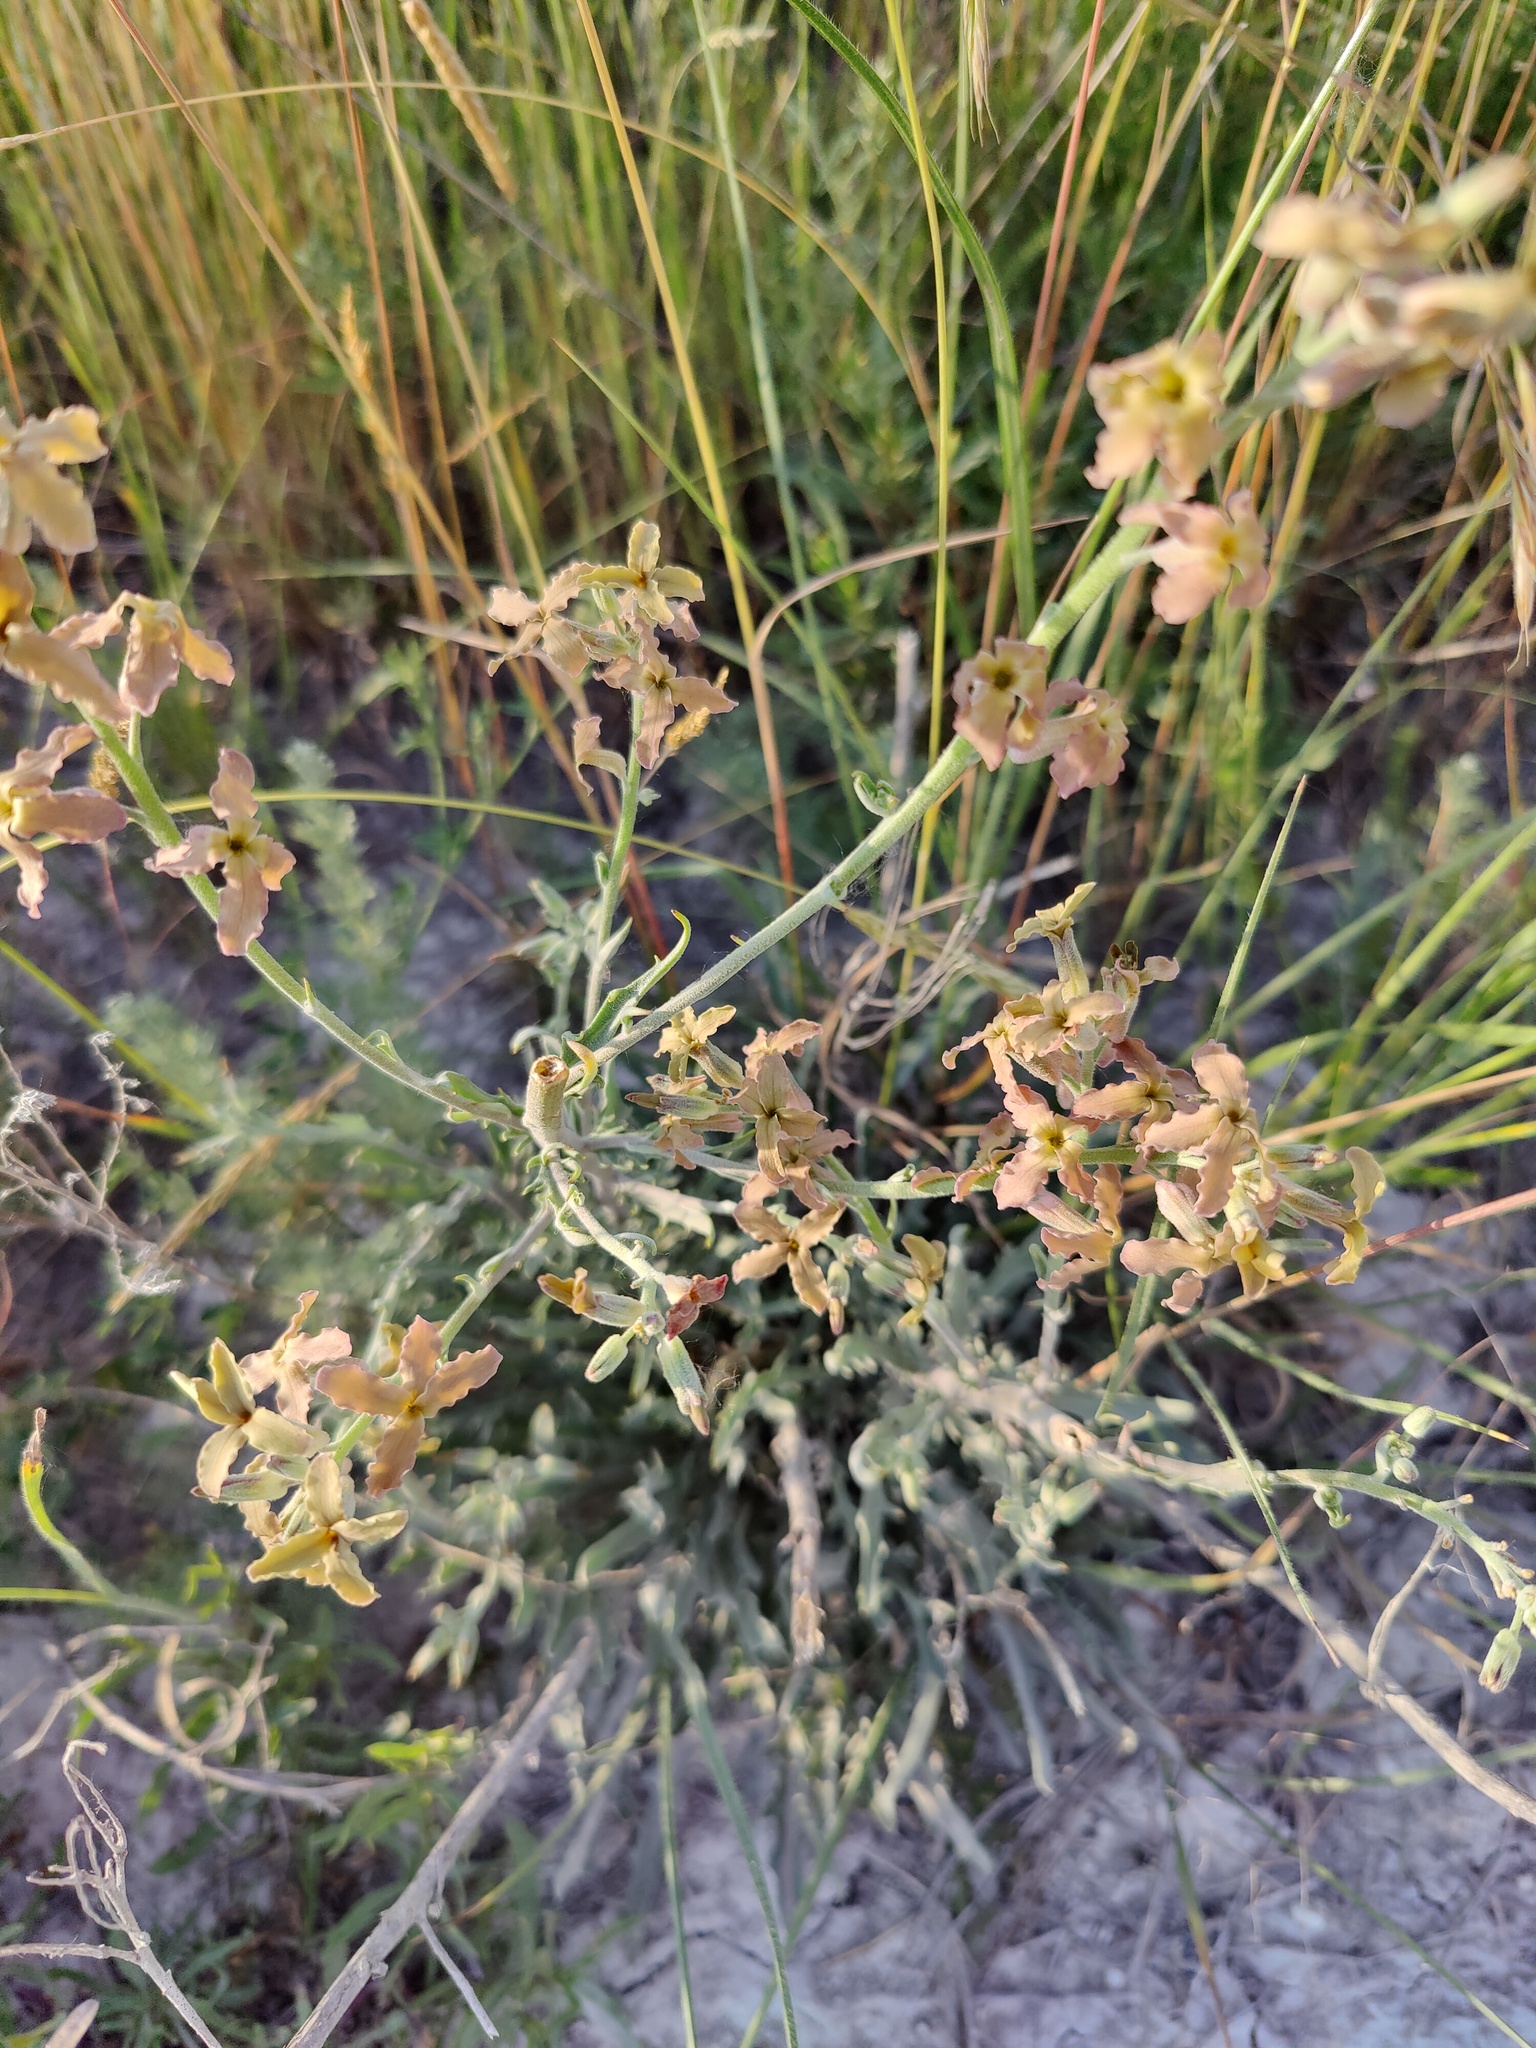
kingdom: Plantae
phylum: Tracheophyta
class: Magnoliopsida
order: Brassicales
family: Brassicaceae
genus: Matthiola
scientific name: Matthiola fragrans
